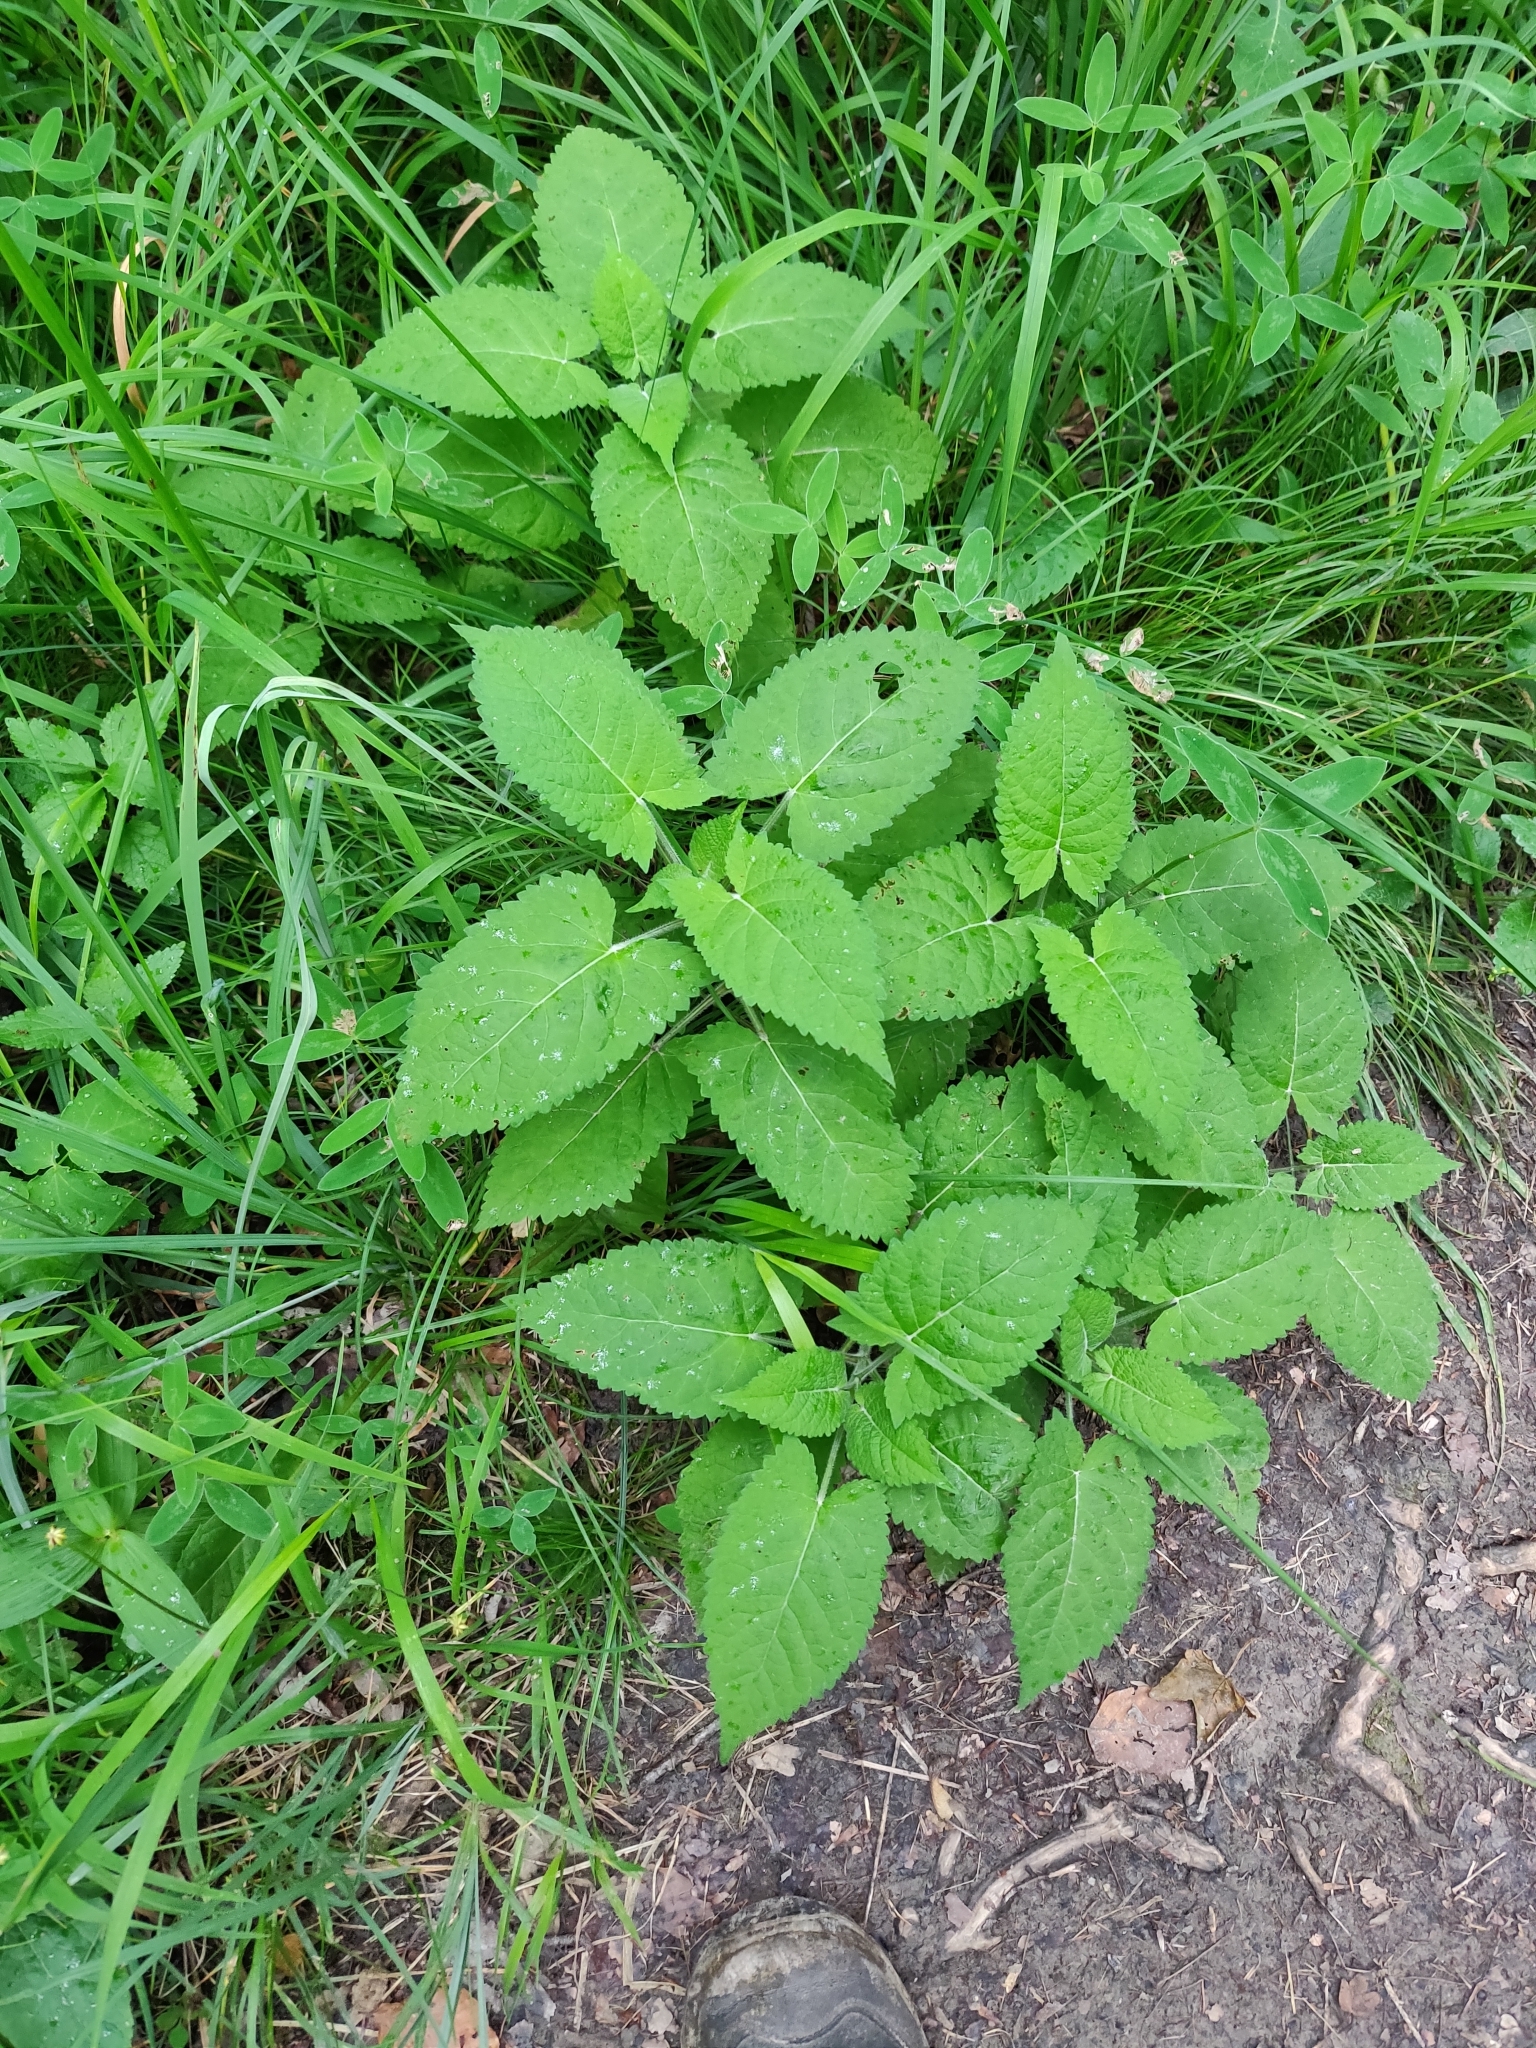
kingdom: Plantae
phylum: Tracheophyta
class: Magnoliopsida
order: Lamiales
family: Lamiaceae
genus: Salvia
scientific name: Salvia glutinosa
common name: Sticky clary
